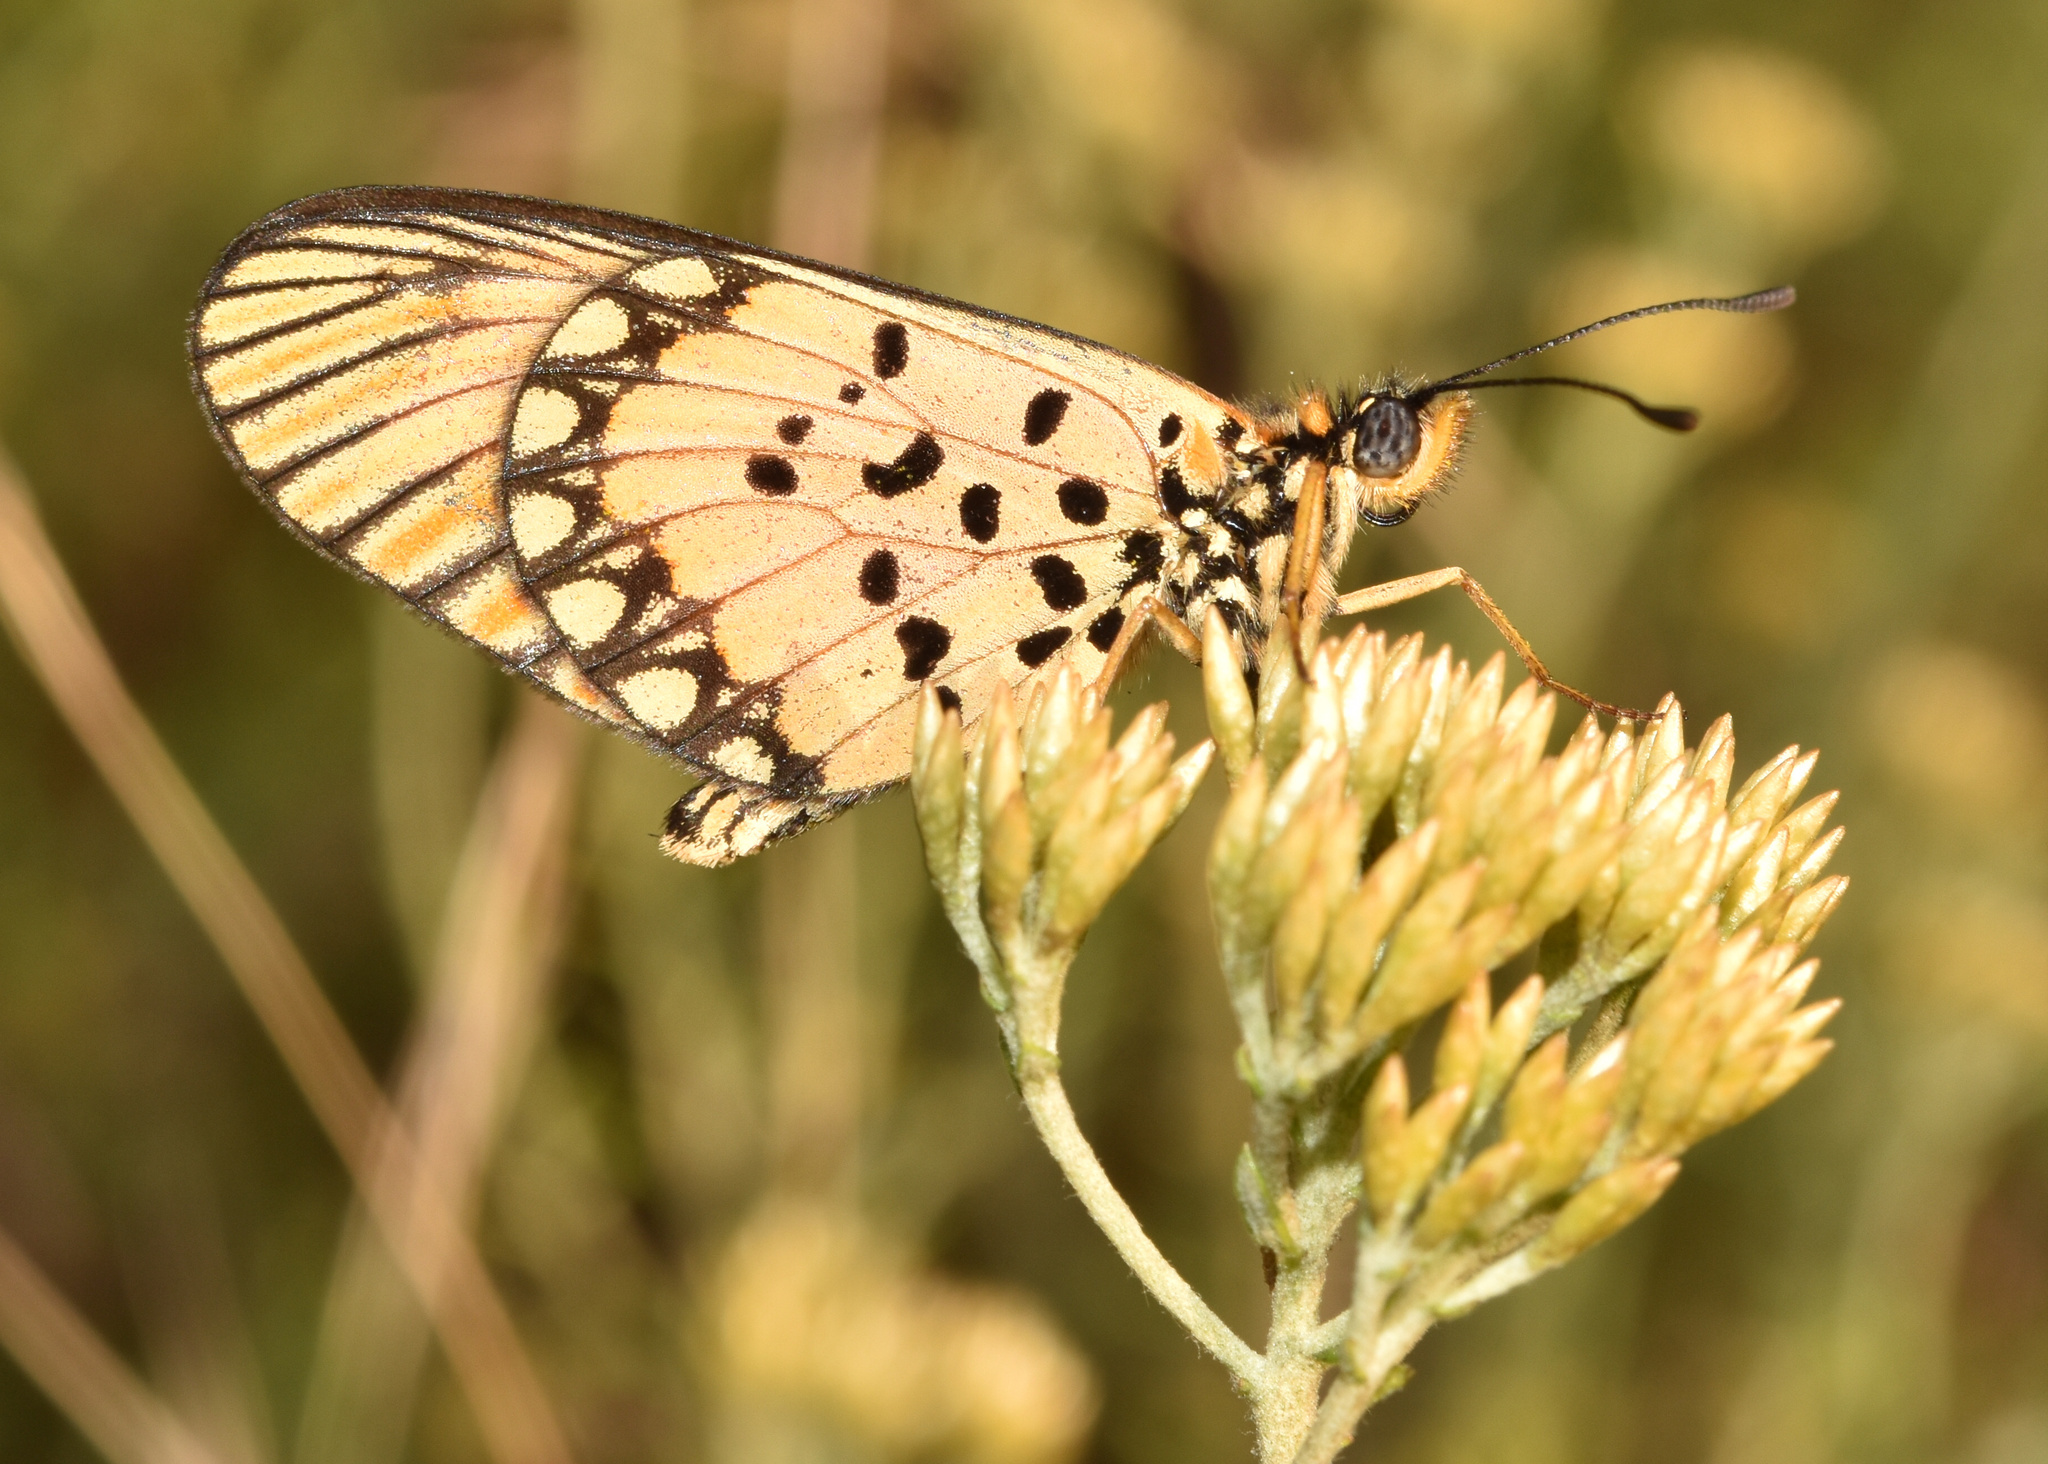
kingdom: Animalia
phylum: Arthropoda
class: Insecta
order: Lepidoptera
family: Nymphalidae
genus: Acraea
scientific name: Acraea Telchinia serena
